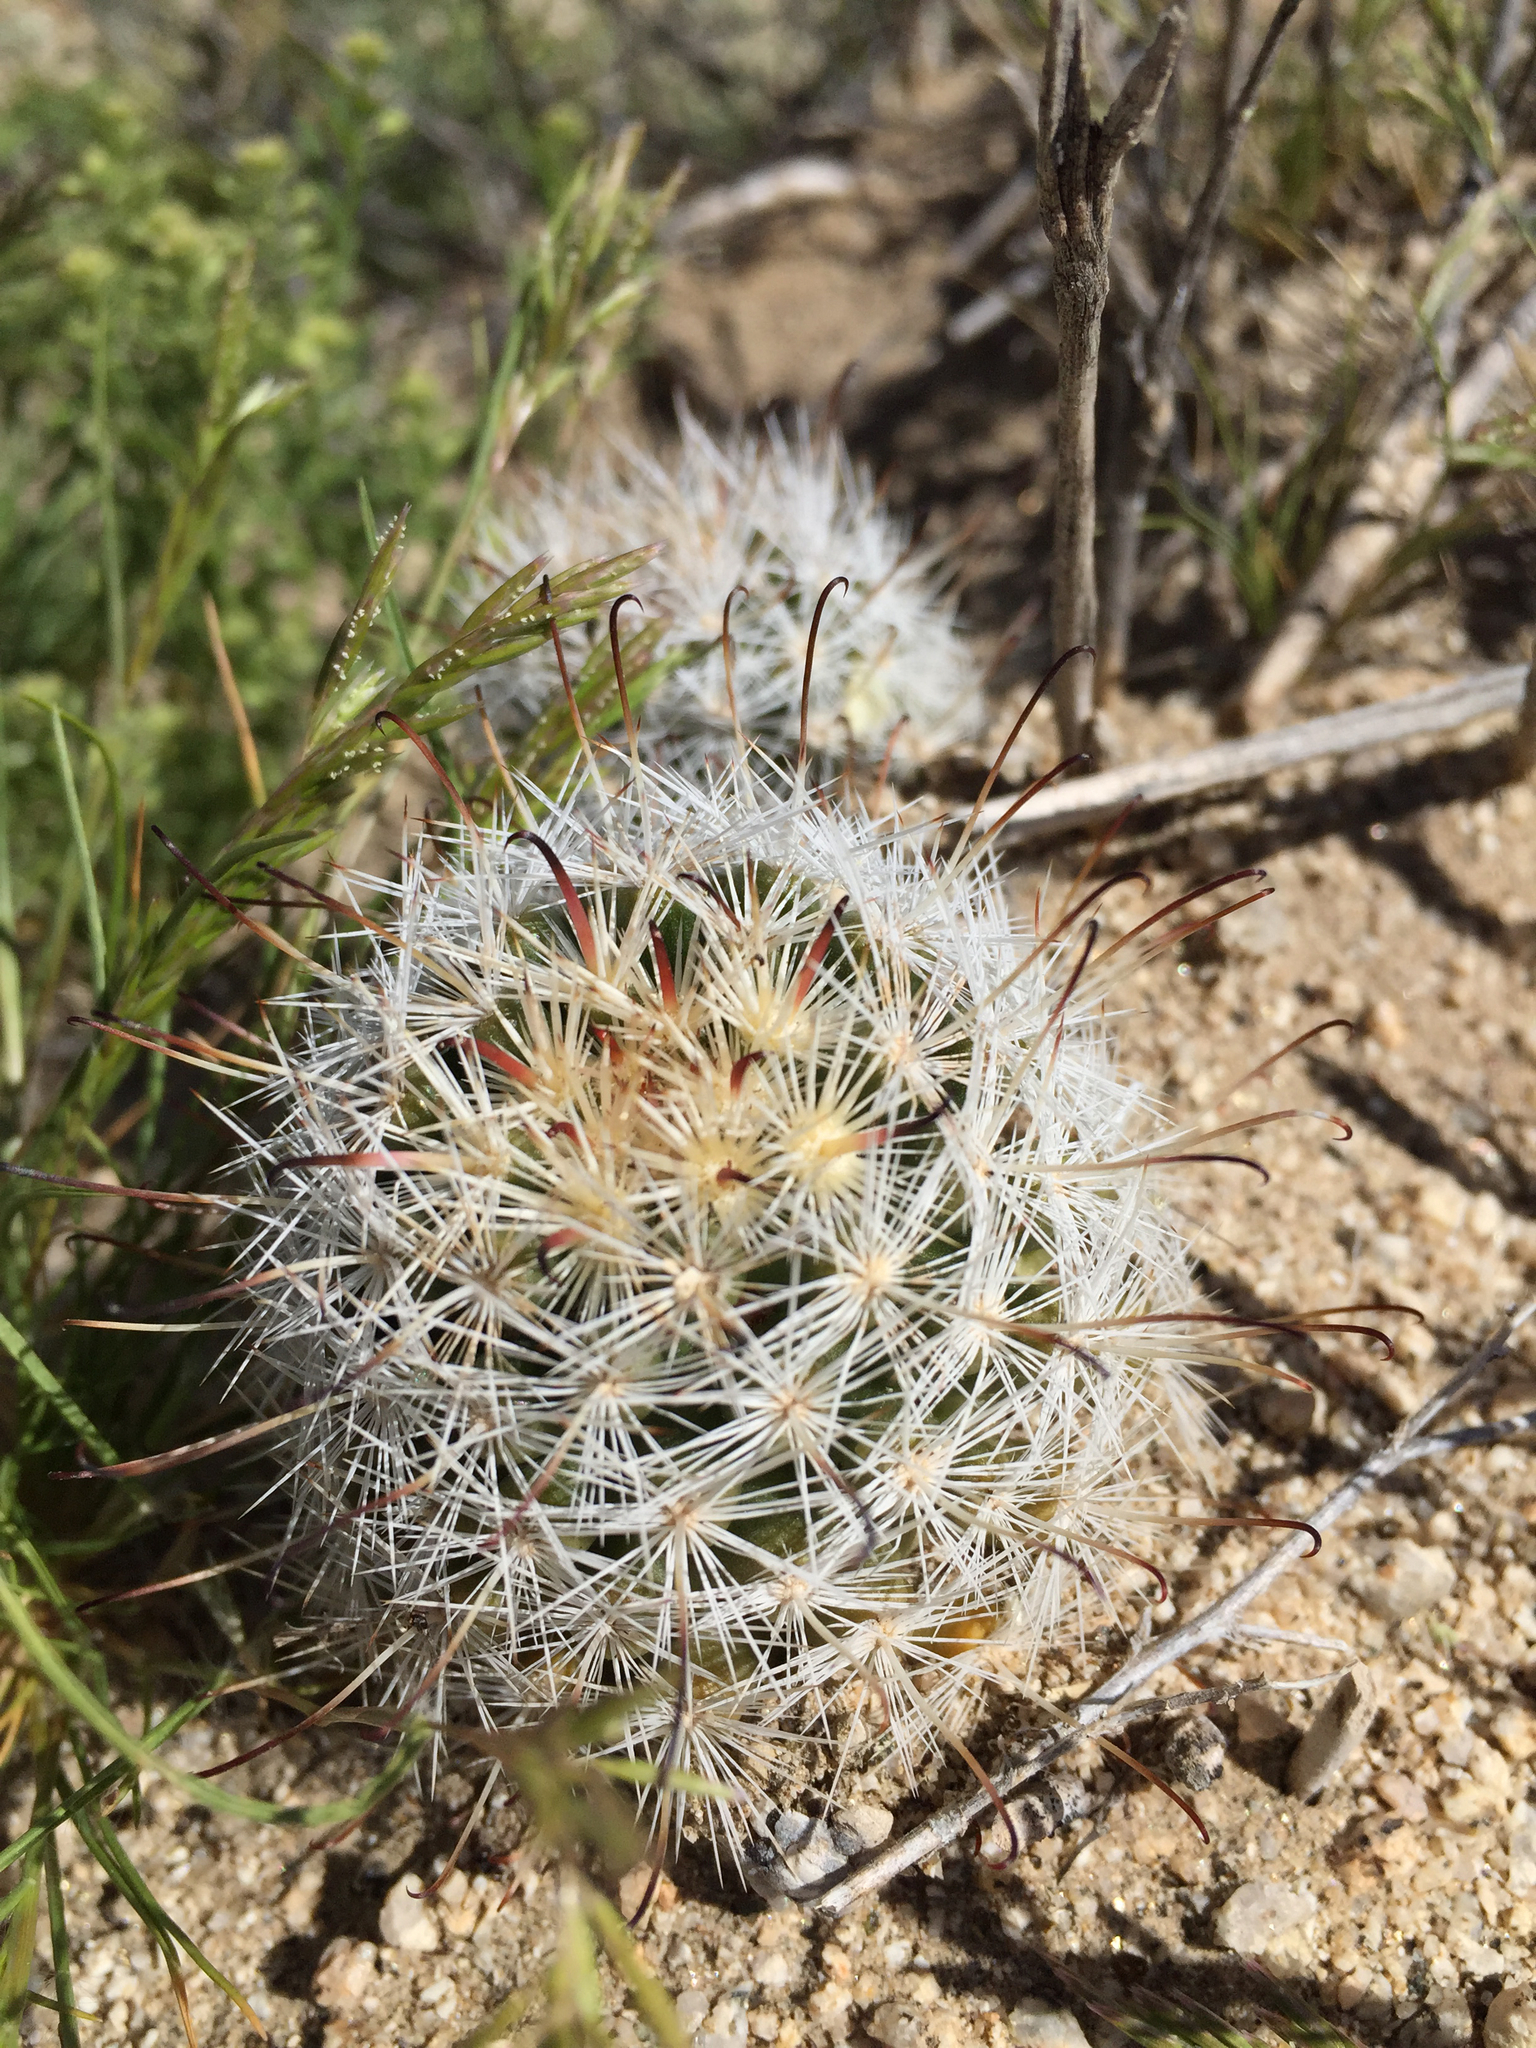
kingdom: Plantae
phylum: Tracheophyta
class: Magnoliopsida
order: Caryophyllales
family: Cactaceae
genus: Cochemiea
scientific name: Cochemiea tetrancistra
